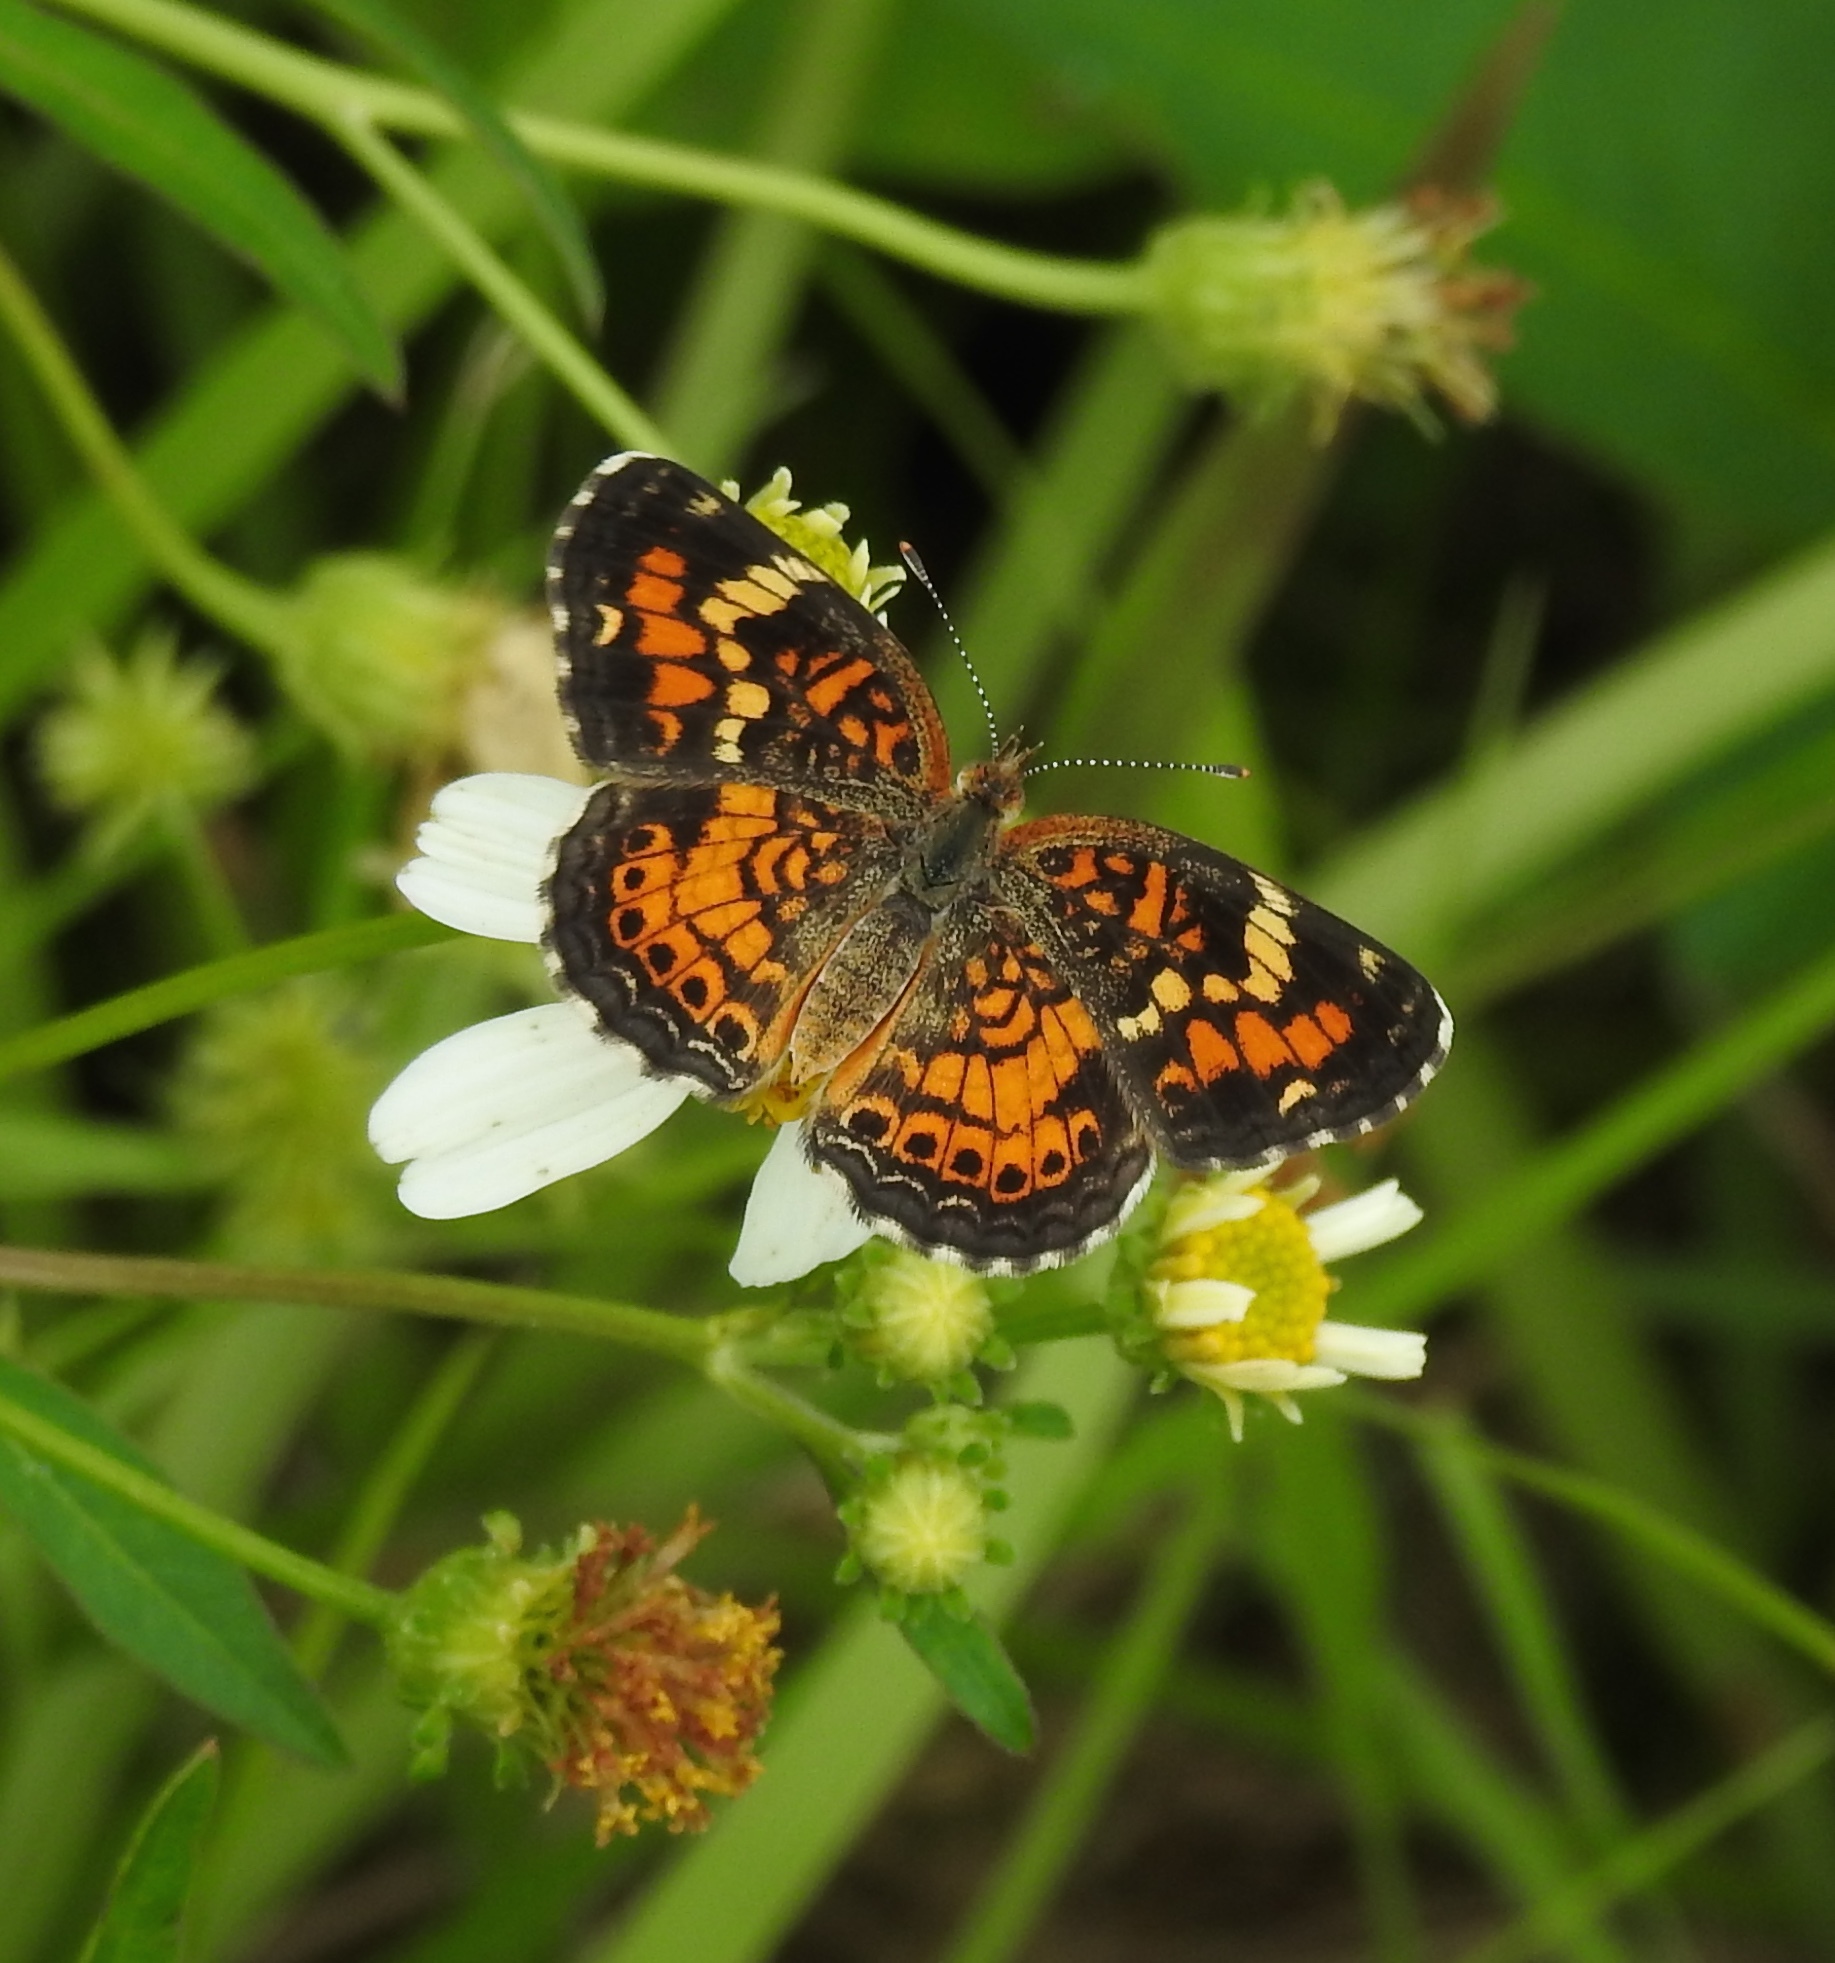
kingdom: Animalia
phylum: Arthropoda
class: Insecta
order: Lepidoptera
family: Nymphalidae
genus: Phyciodes
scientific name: Phyciodes phaon
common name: Phaon crescent
